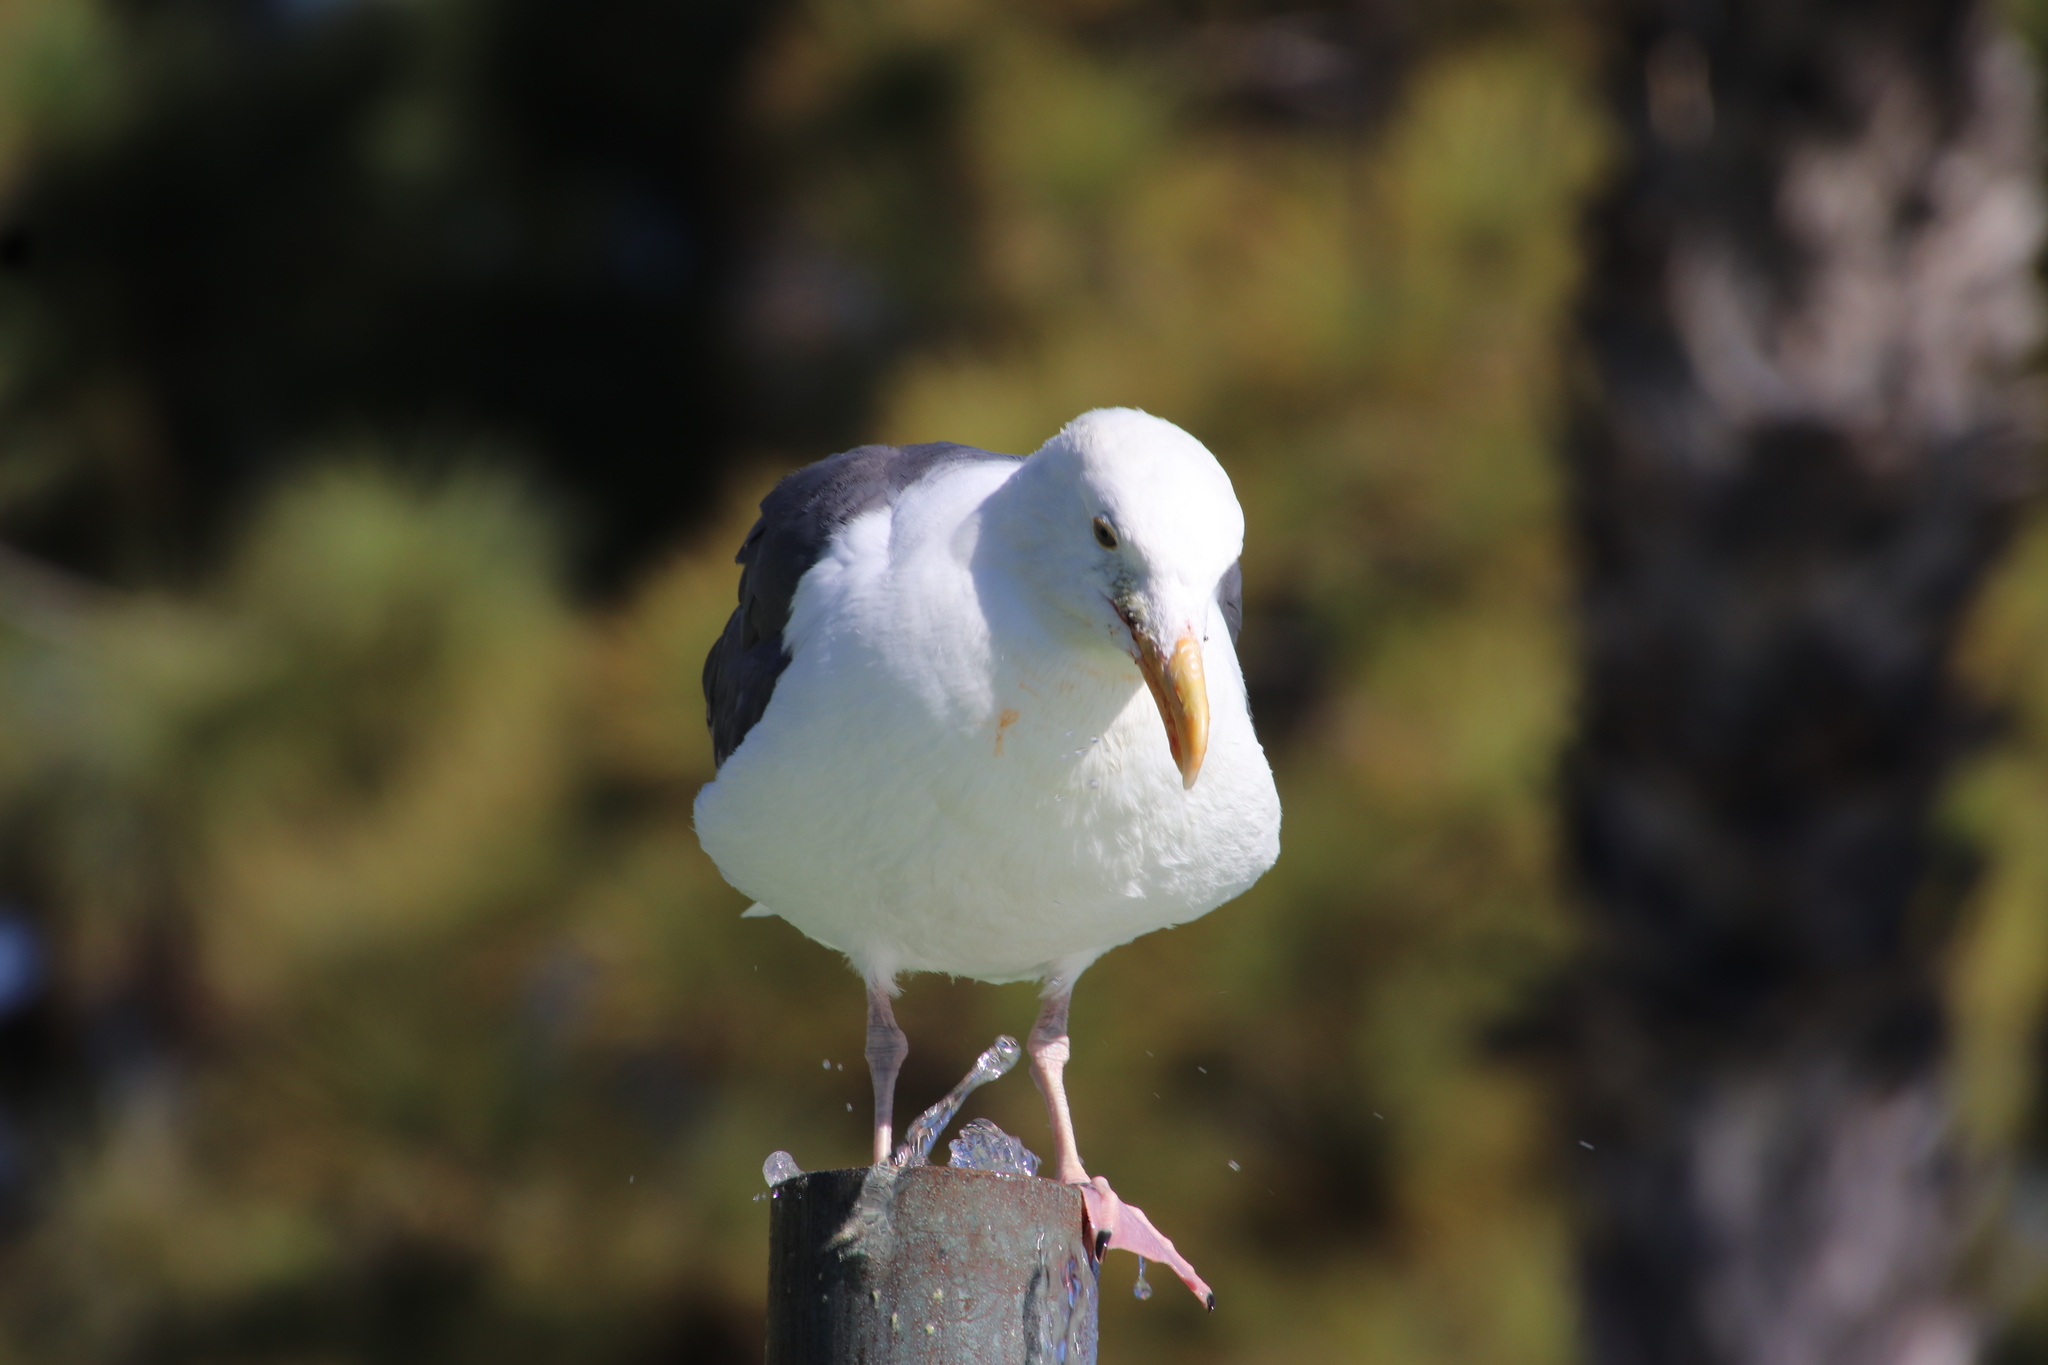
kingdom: Animalia
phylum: Chordata
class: Aves
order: Charadriiformes
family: Laridae
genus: Larus
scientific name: Larus occidentalis
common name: Western gull
